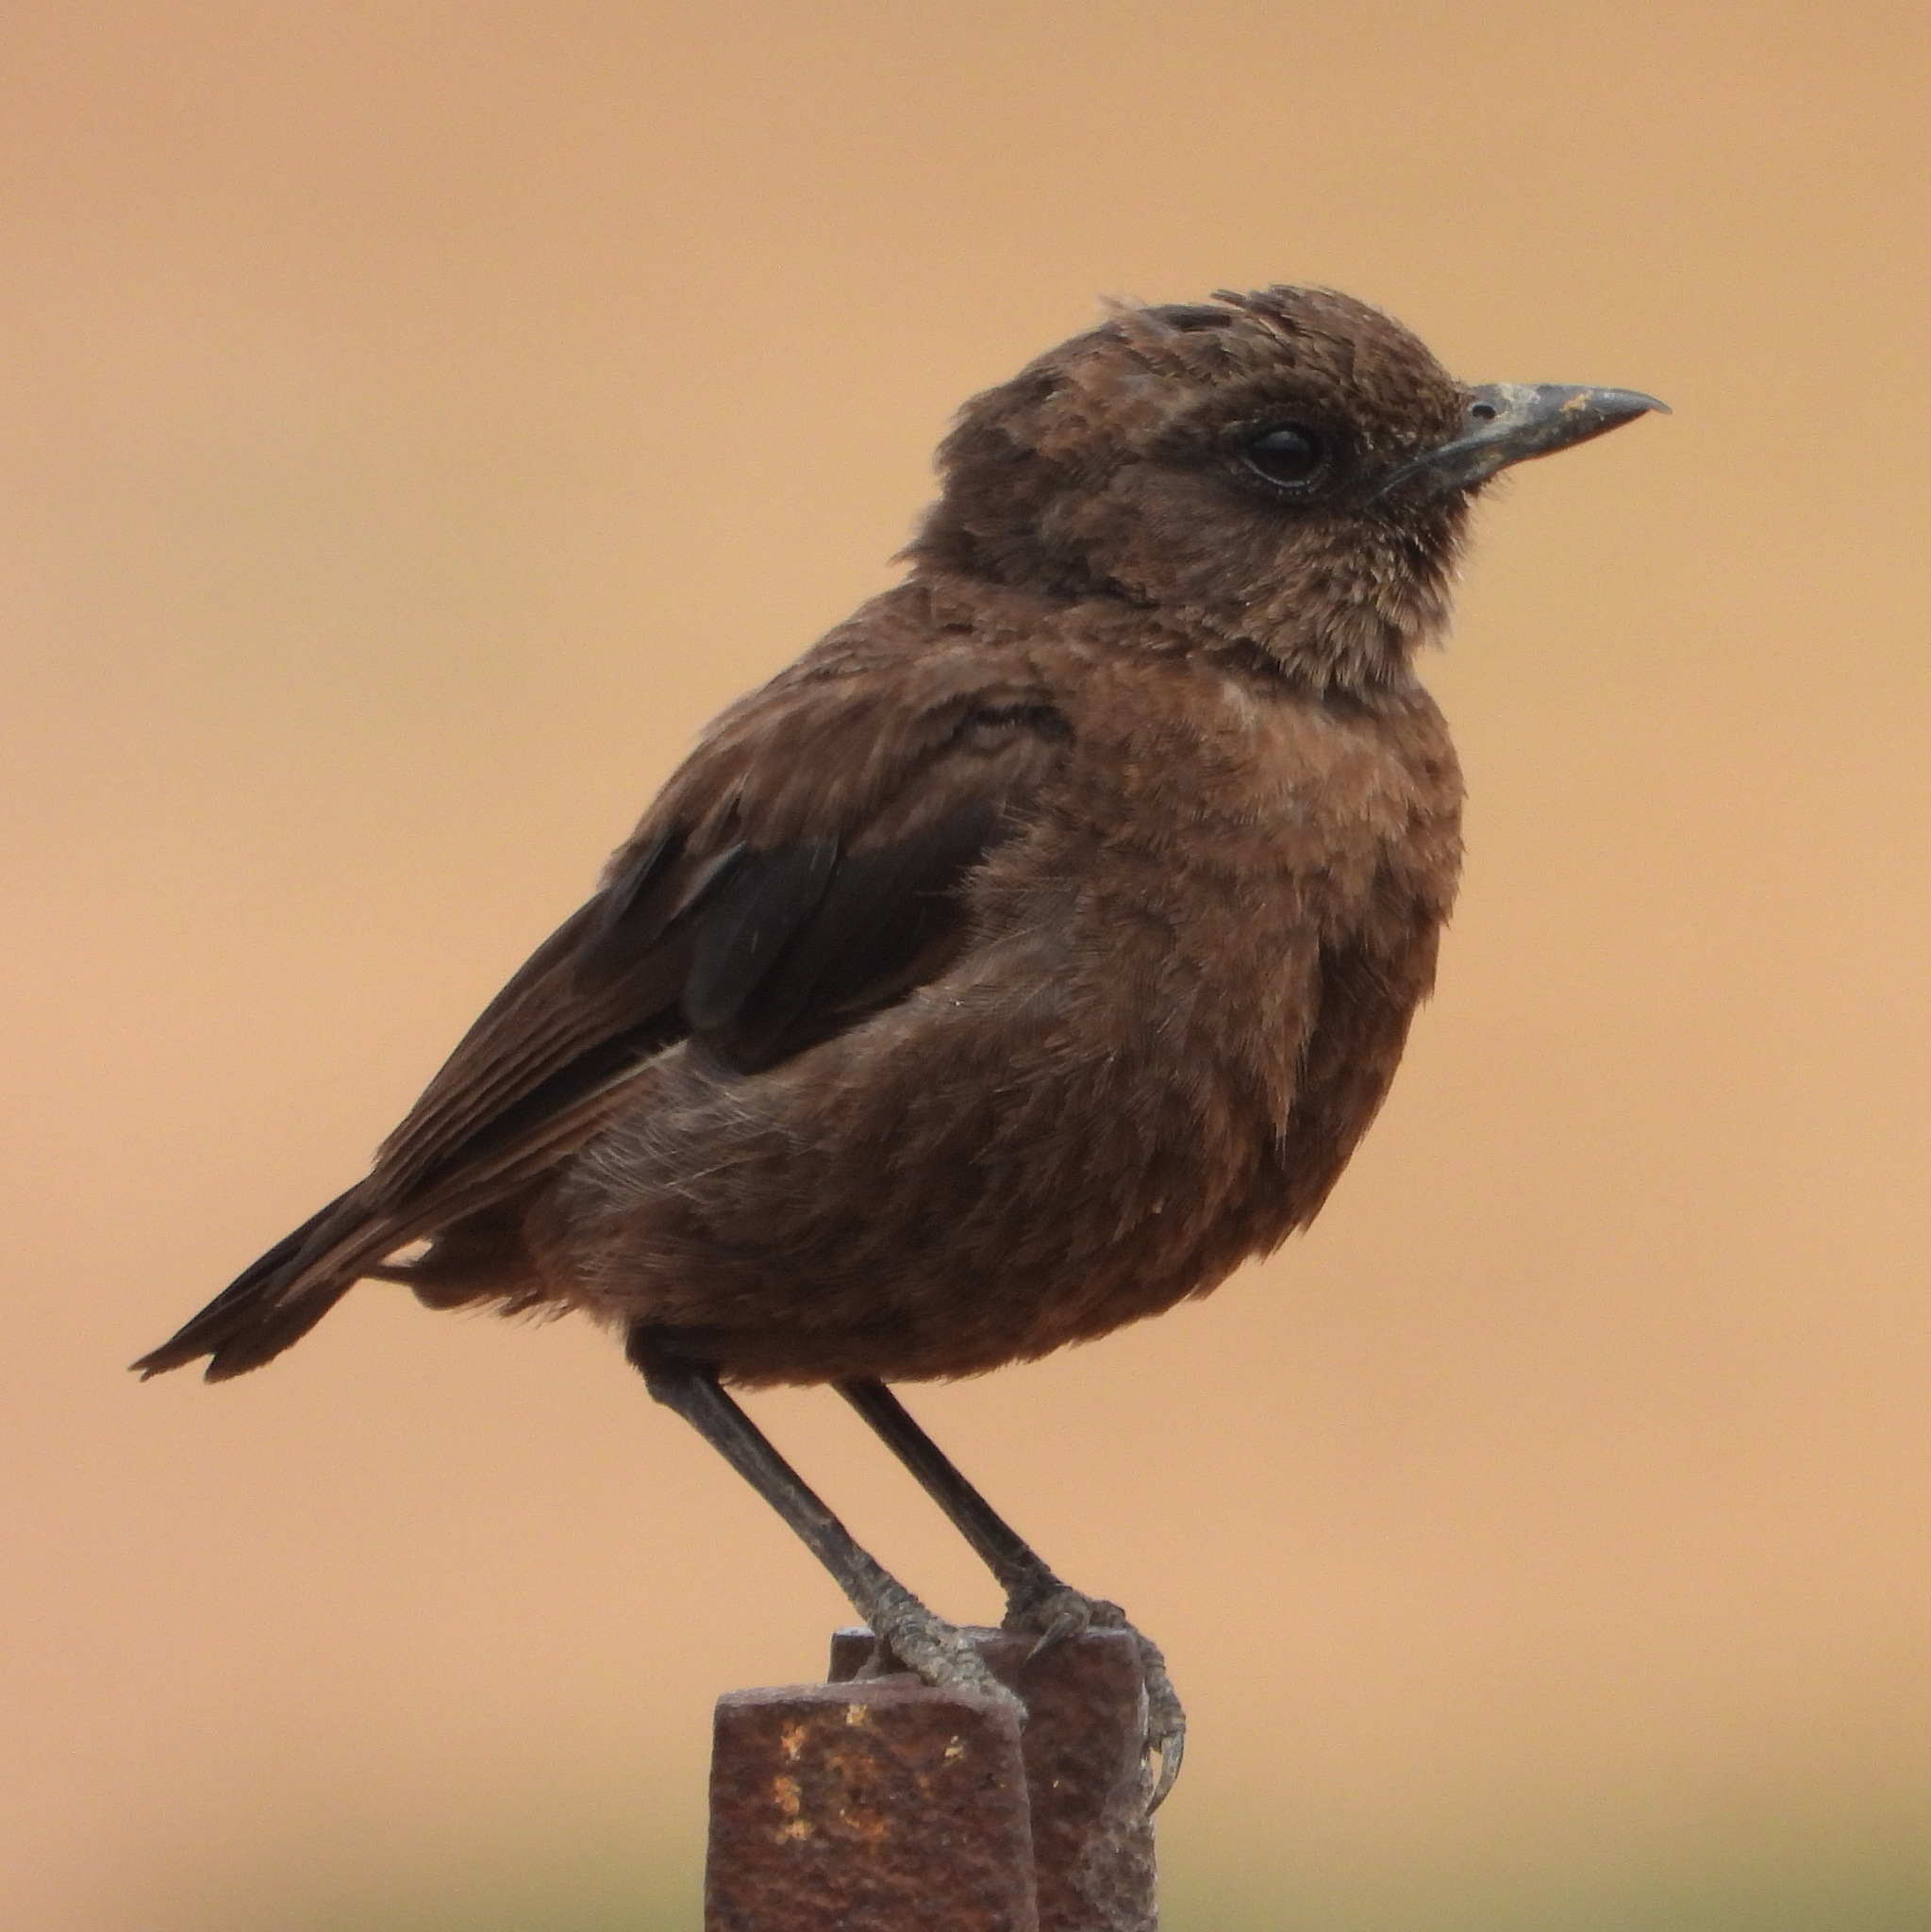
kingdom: Animalia
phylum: Chordata
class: Aves
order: Passeriformes
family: Muscicapidae
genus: Myrmecocichla
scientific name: Myrmecocichla formicivora
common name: Ant-eating chat
